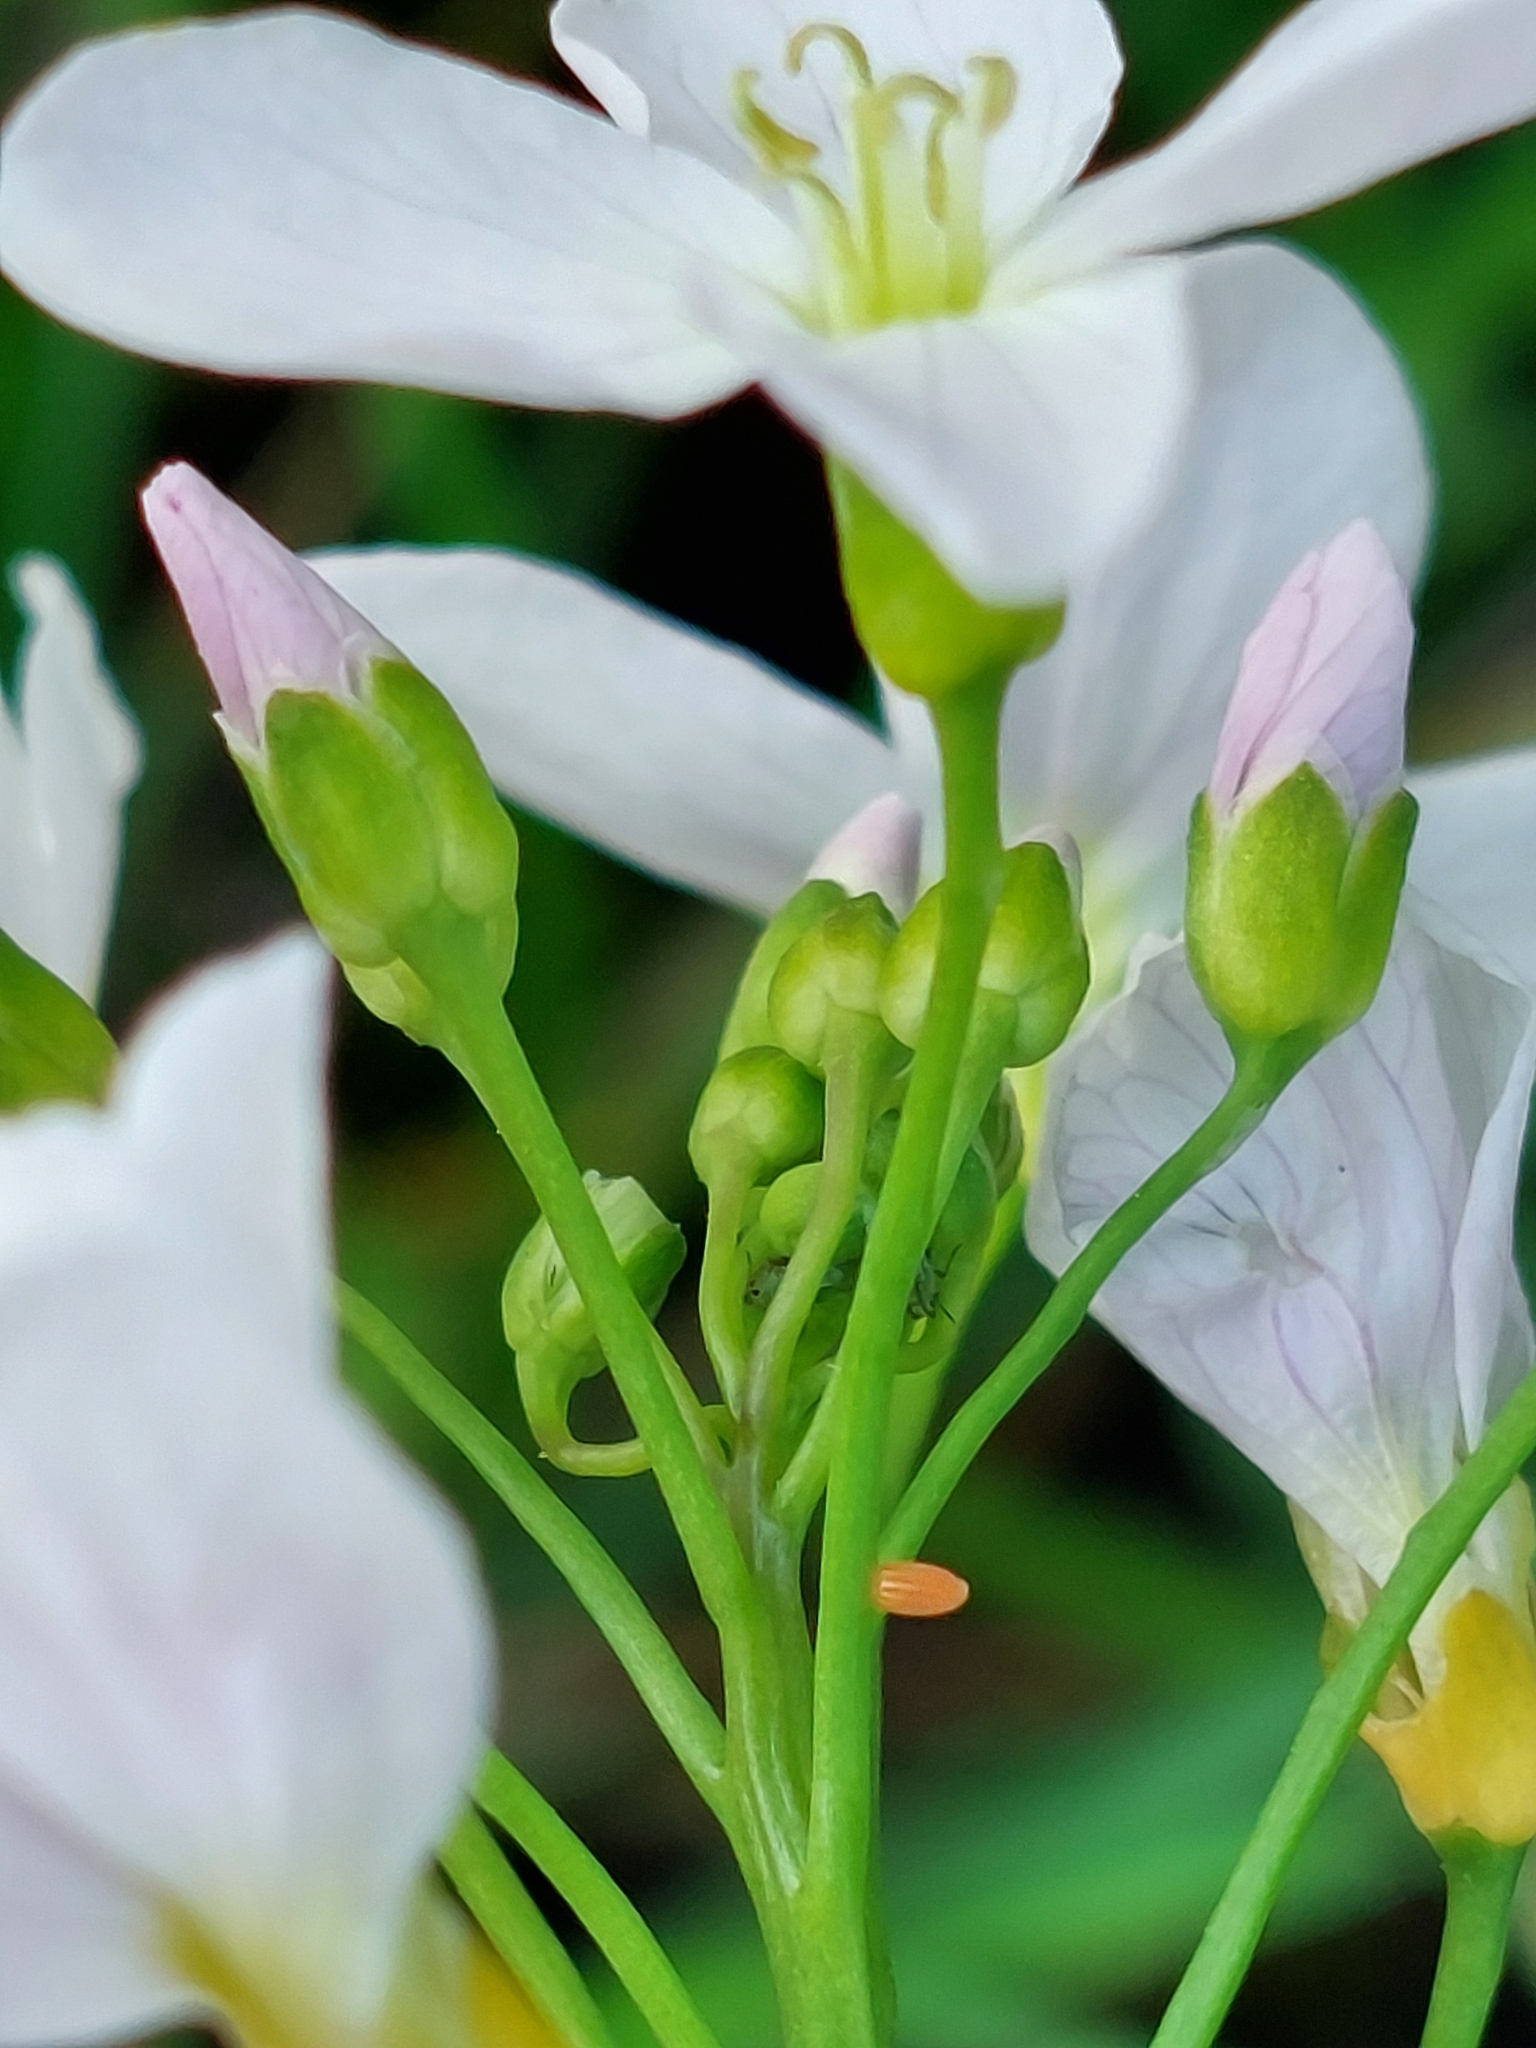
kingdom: Animalia
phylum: Arthropoda
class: Insecta
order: Lepidoptera
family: Pieridae
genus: Anthocharis
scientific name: Anthocharis cardamines
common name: Orange-tip
